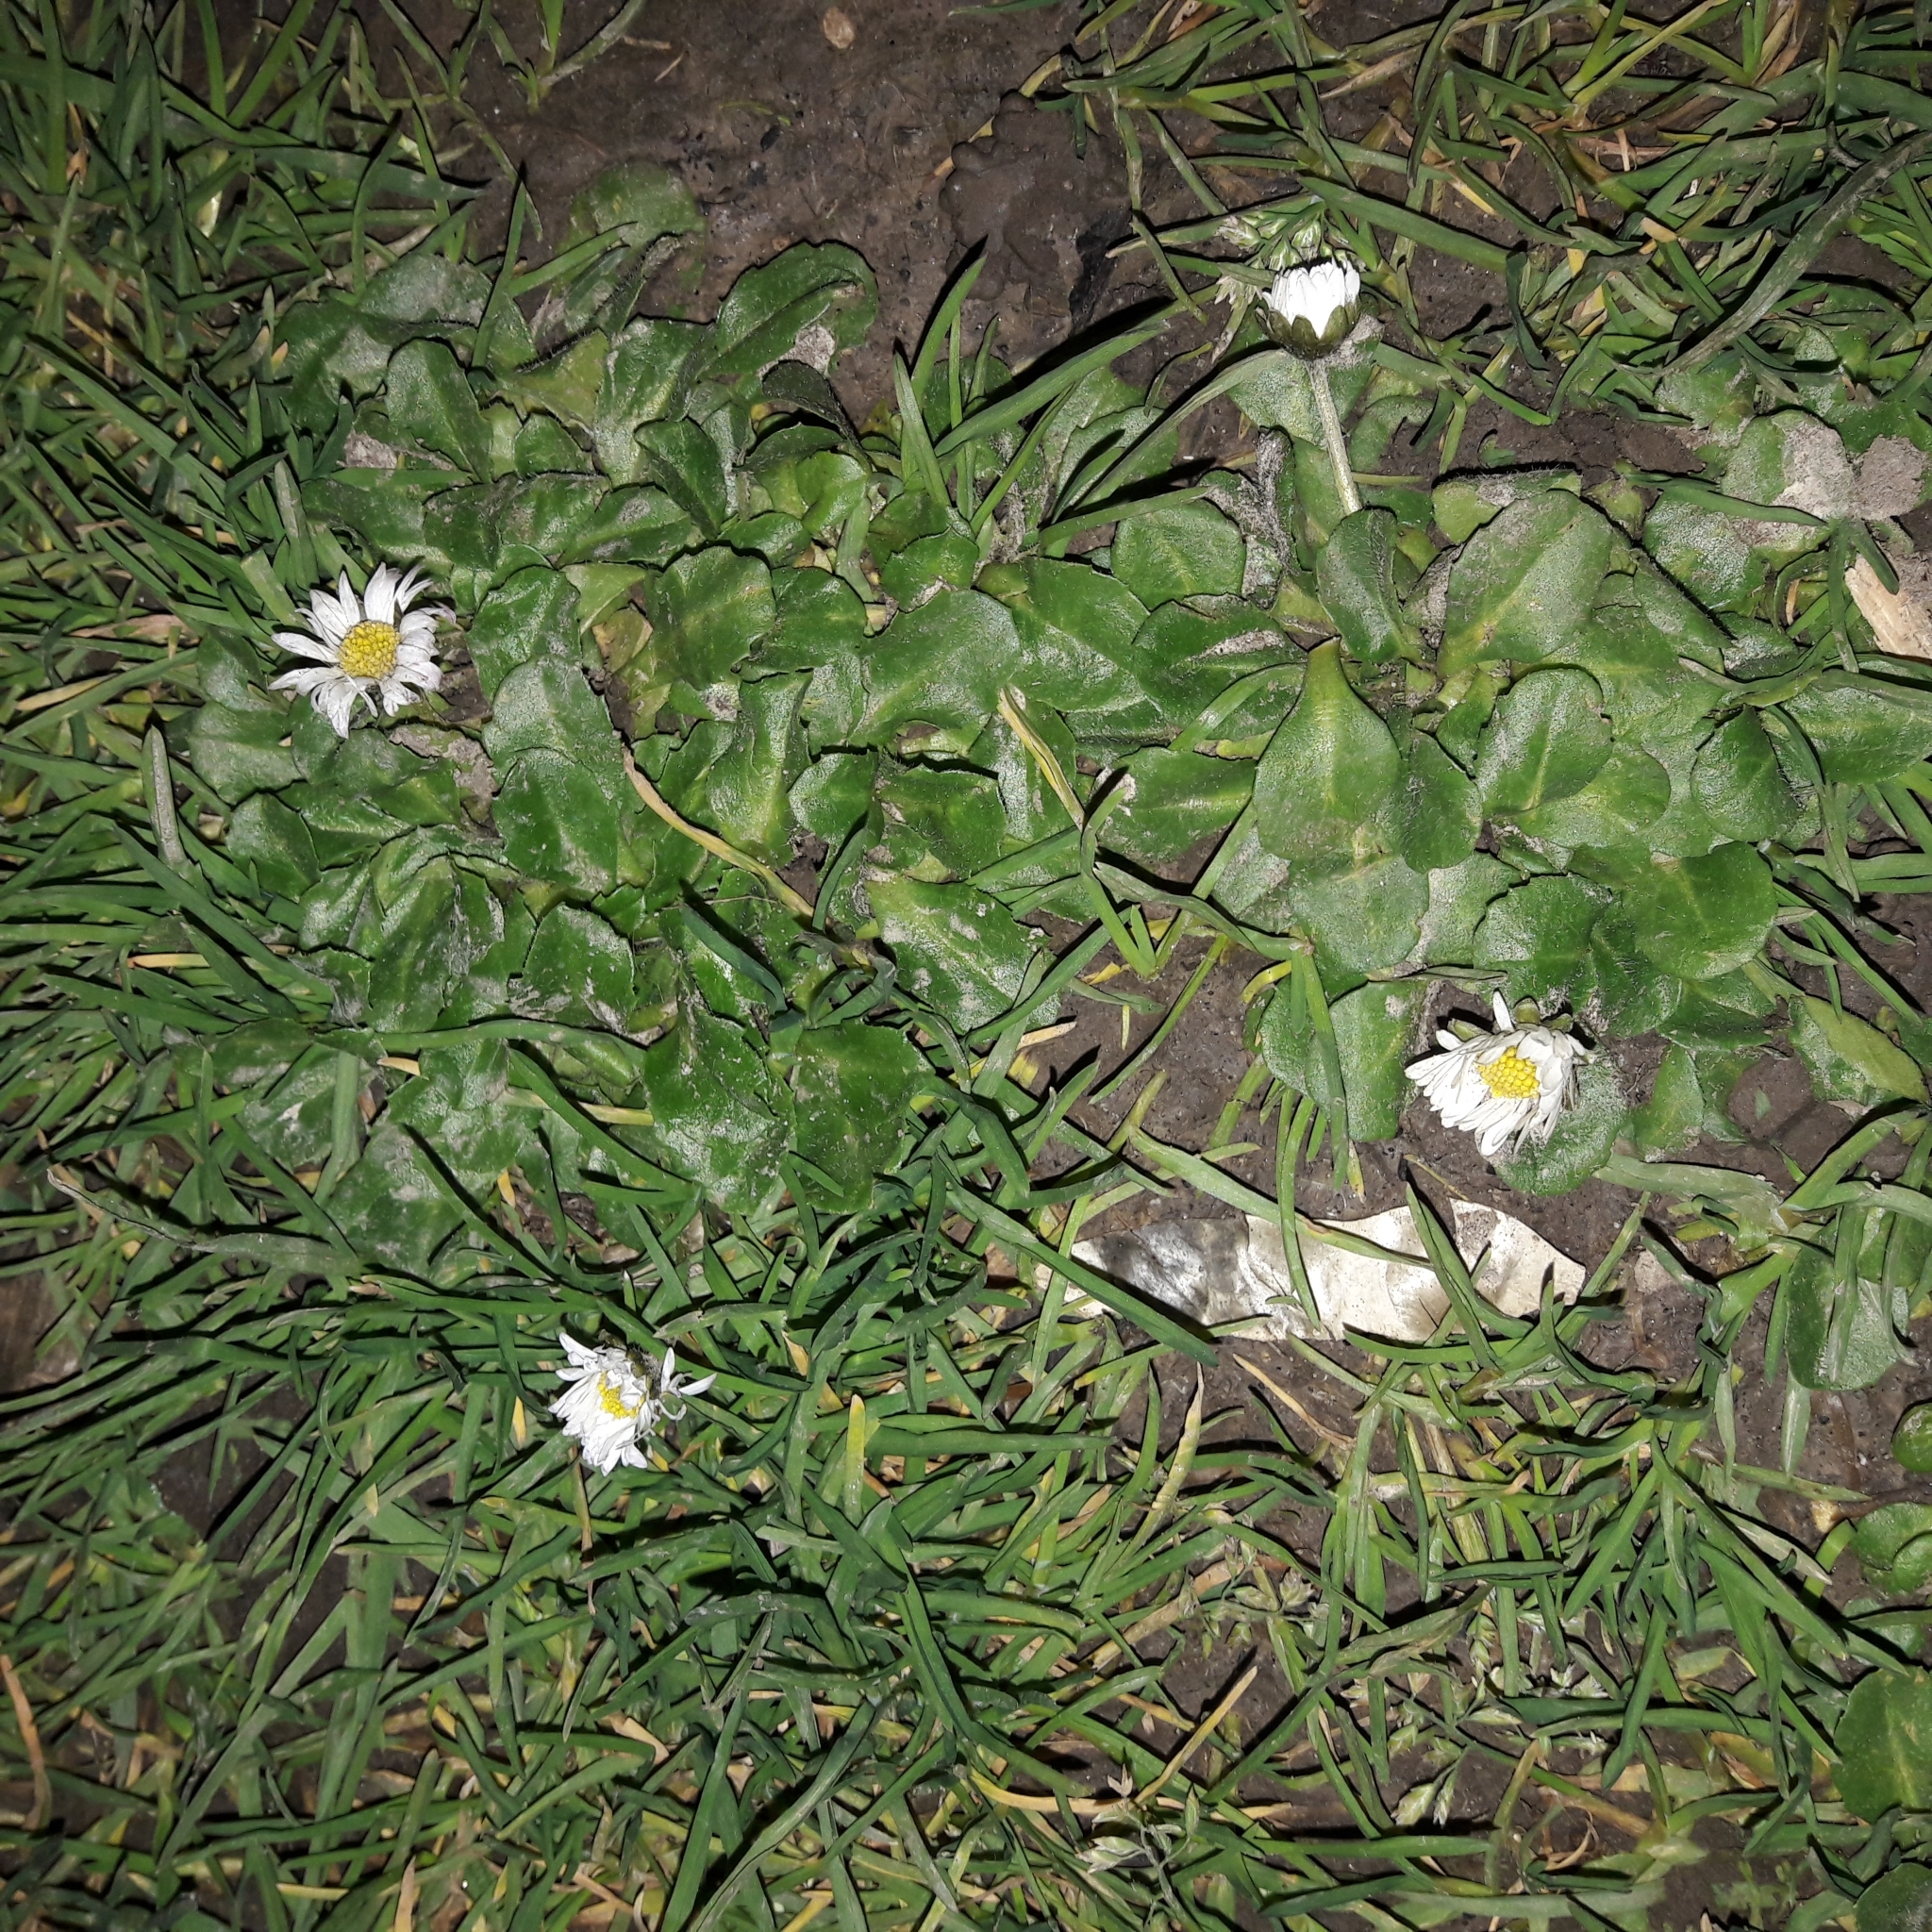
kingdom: Plantae
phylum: Tracheophyta
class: Magnoliopsida
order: Asterales
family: Asteraceae
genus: Bellis
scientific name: Bellis perennis
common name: Lawndaisy
